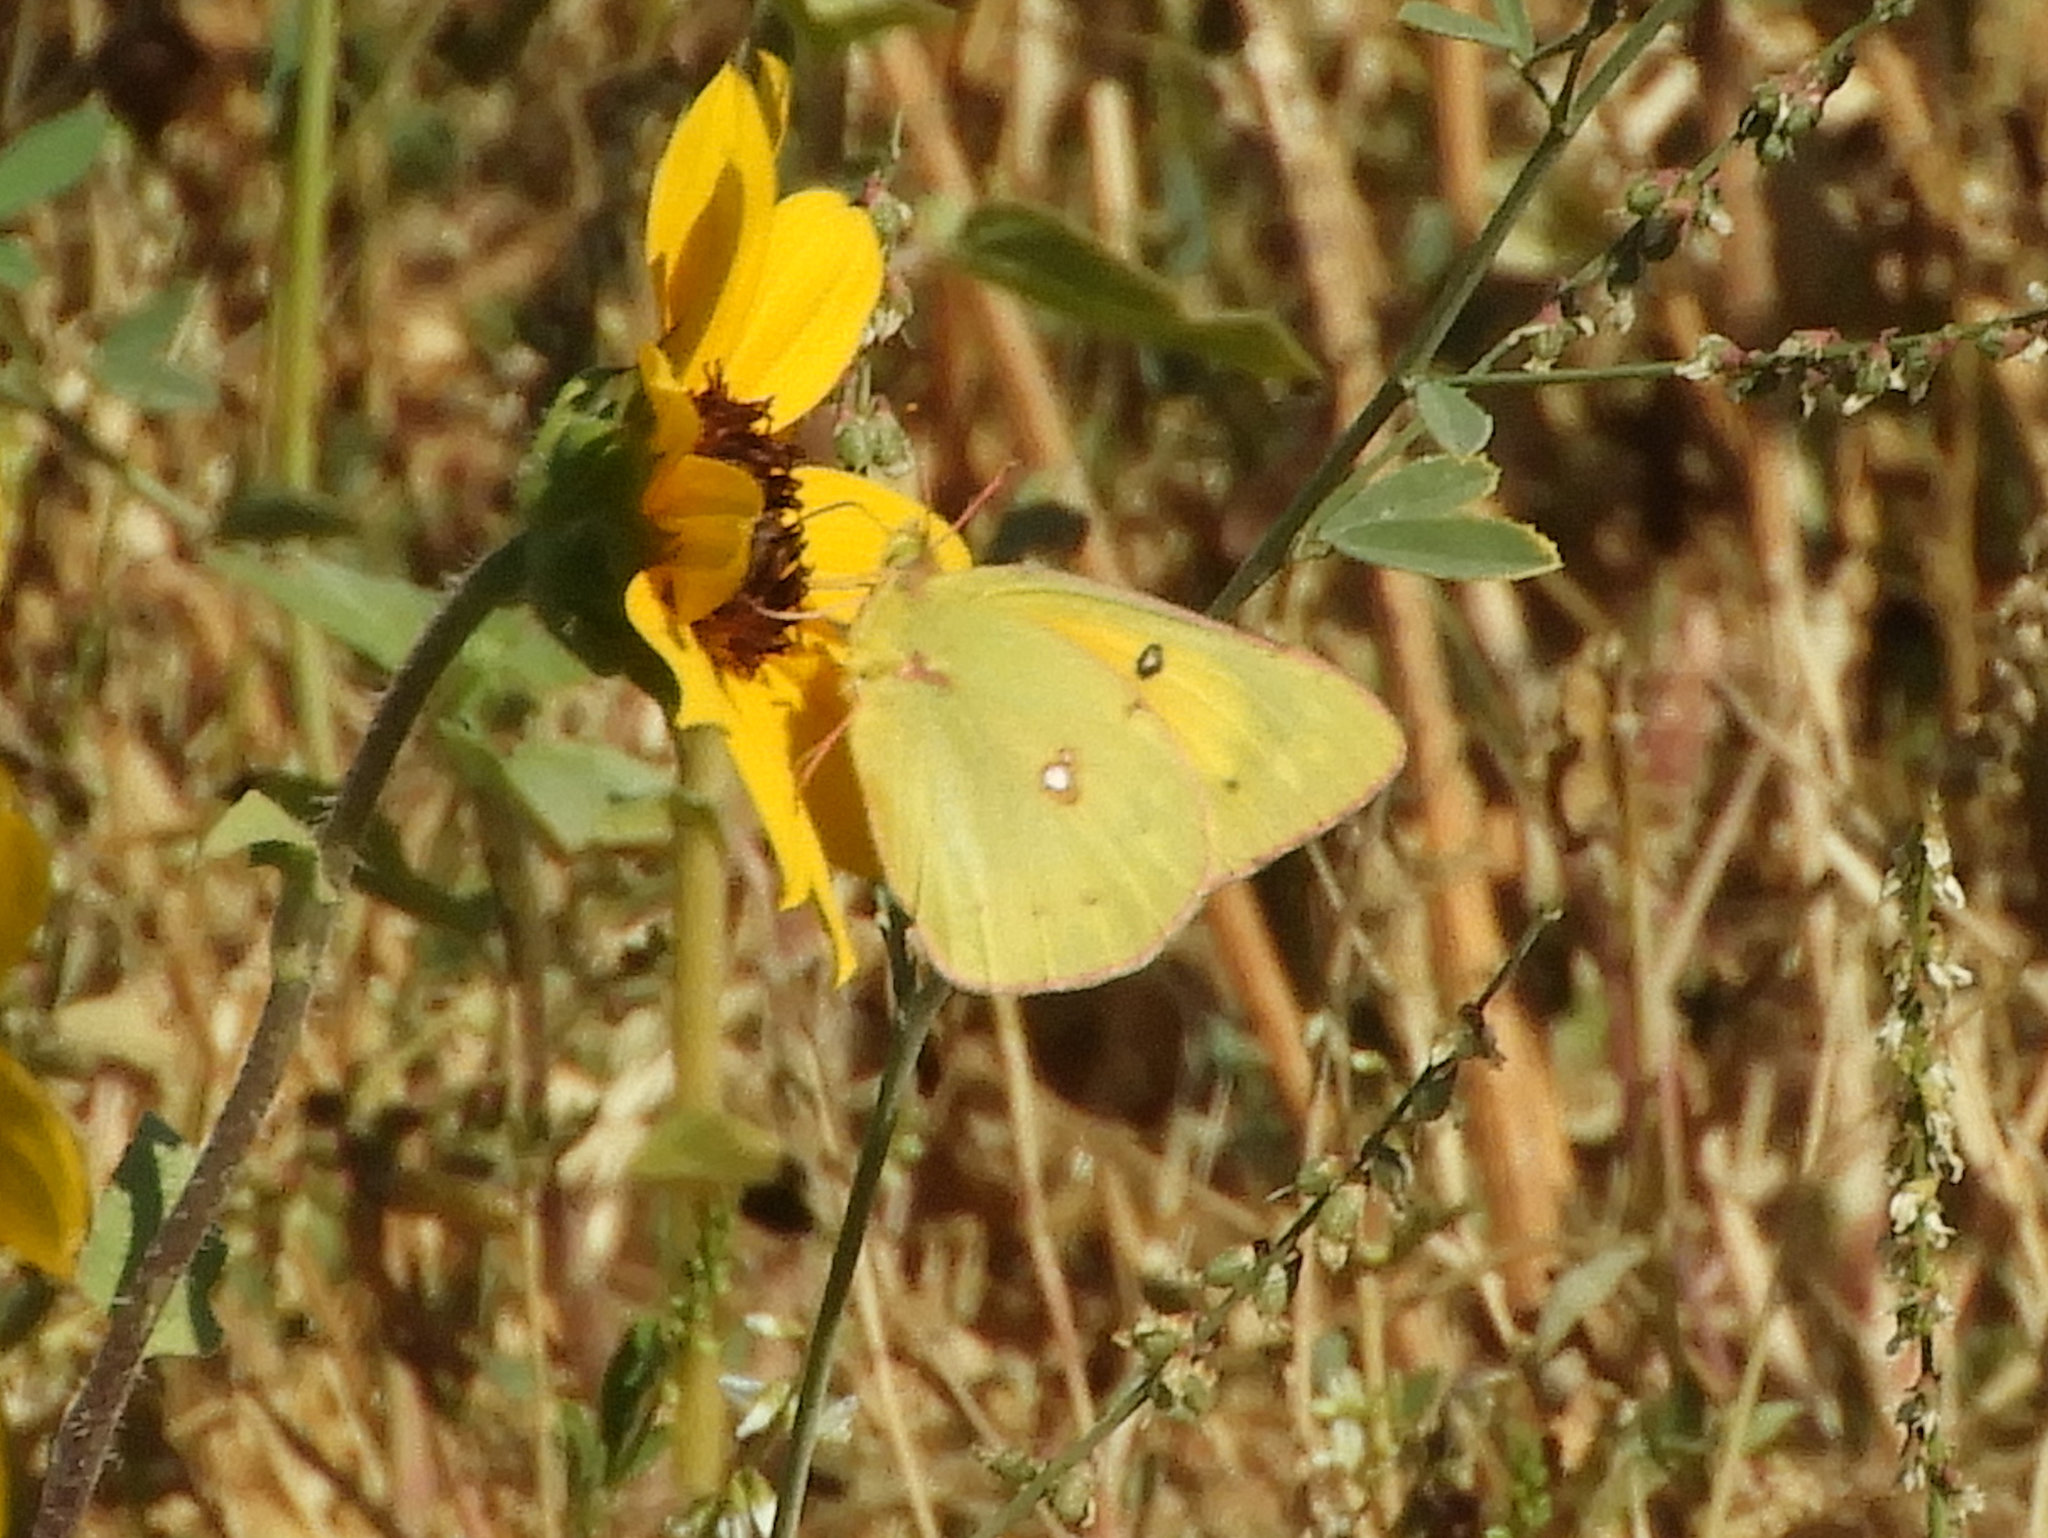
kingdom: Animalia
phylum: Arthropoda
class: Insecta
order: Lepidoptera
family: Pieridae
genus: Colias
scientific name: Colias eurytheme
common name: Alfalfa butterfly
